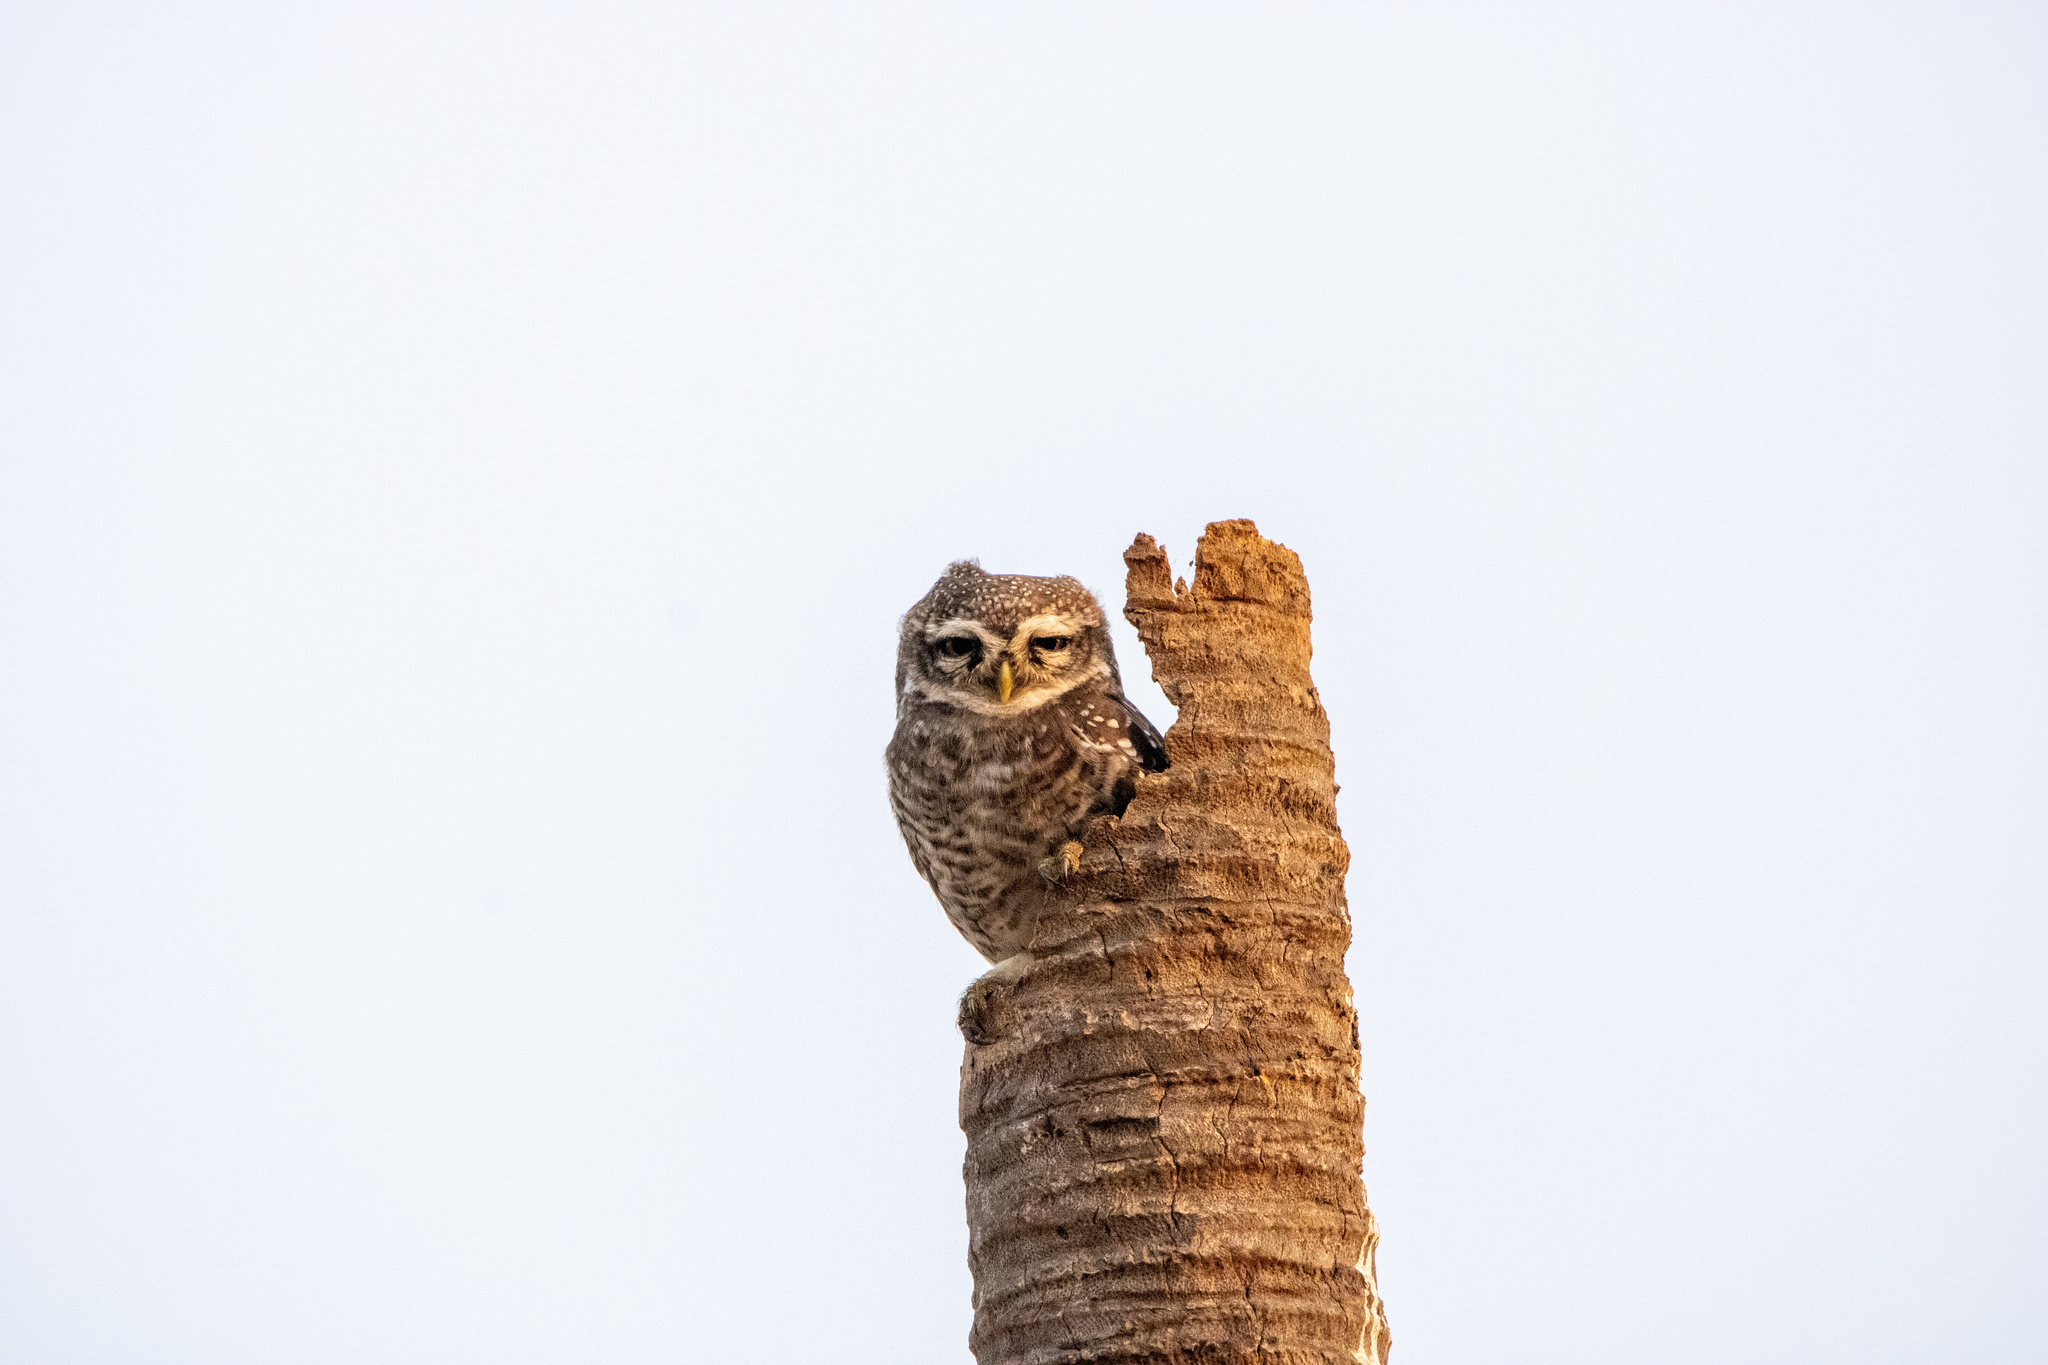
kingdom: Animalia
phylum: Chordata
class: Aves
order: Strigiformes
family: Strigidae
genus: Athene
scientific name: Athene brama
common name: Spotted owlet
